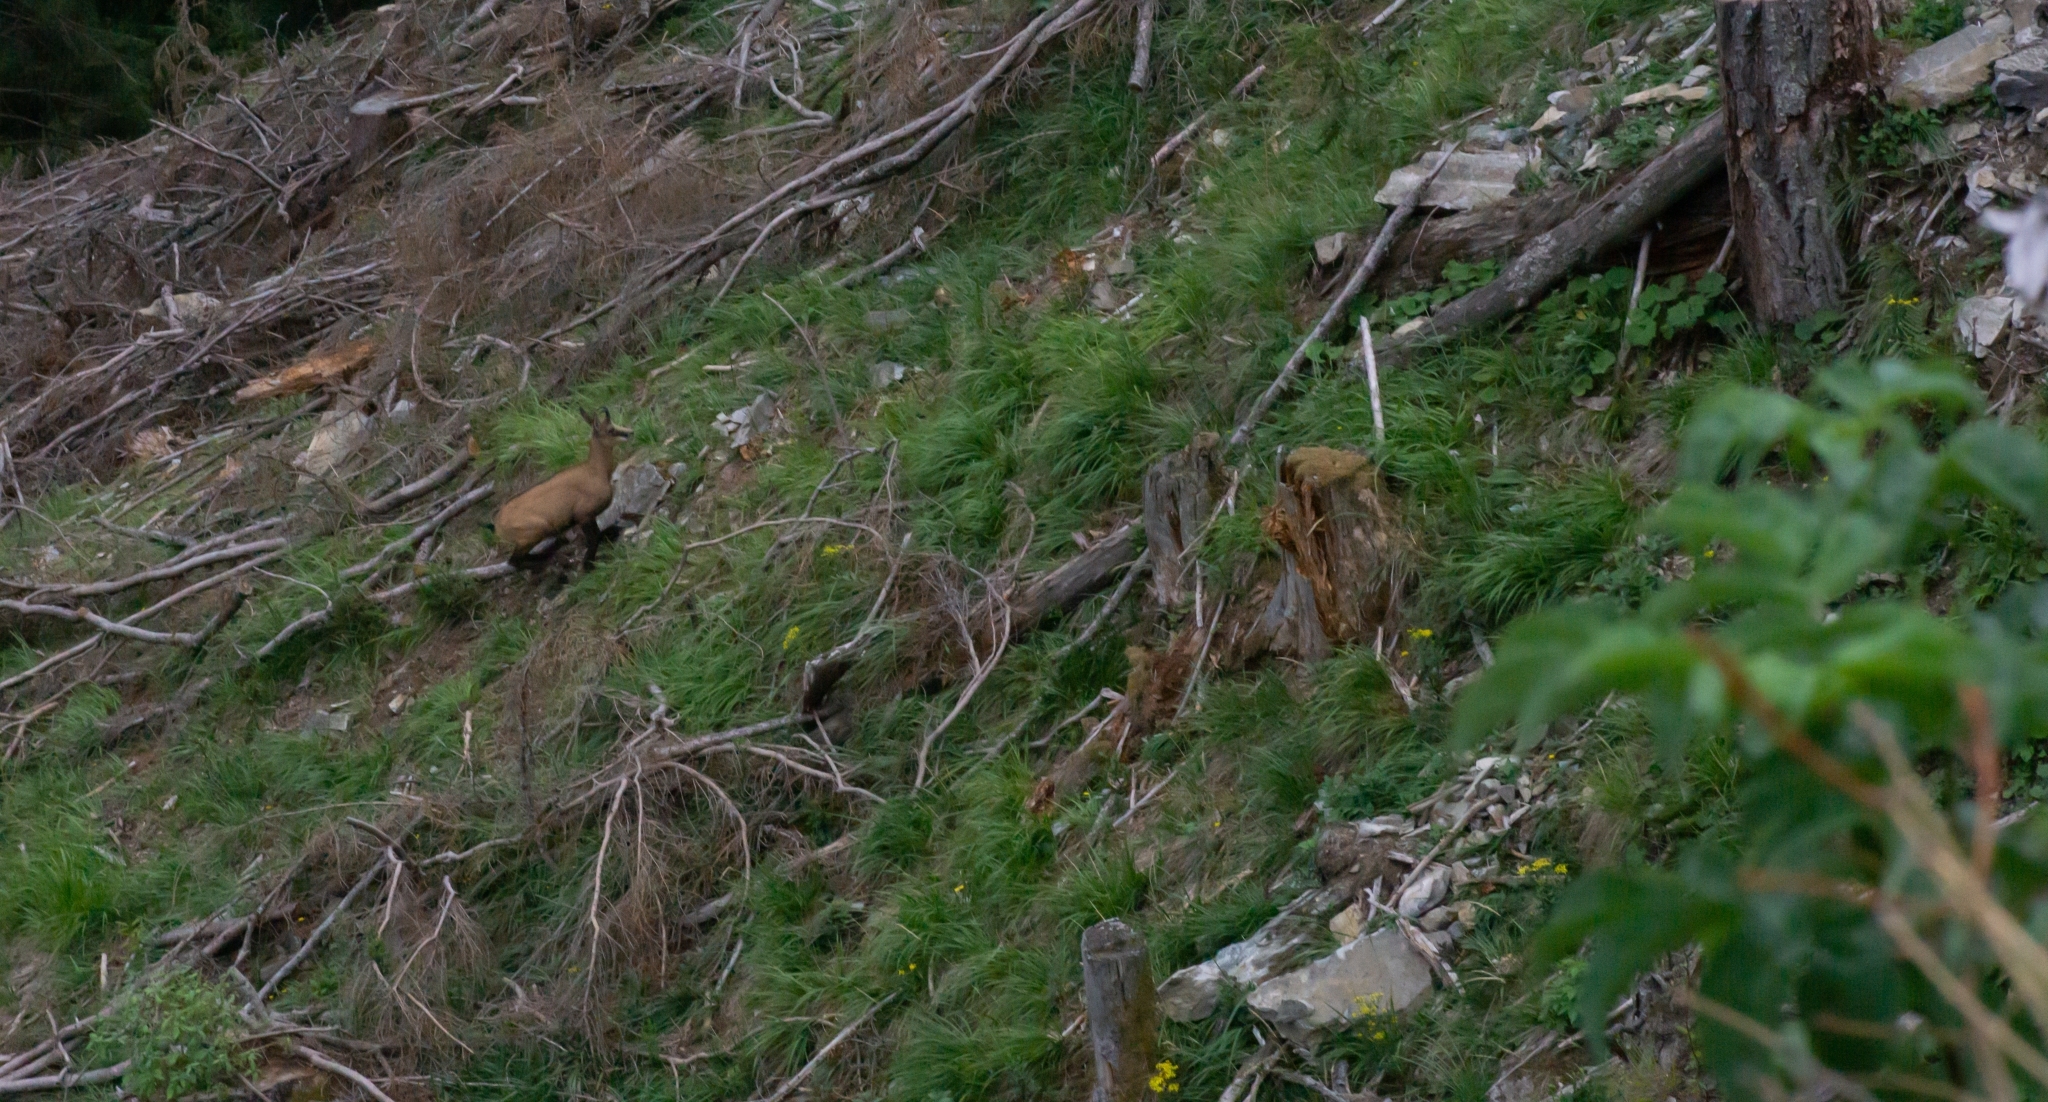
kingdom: Animalia
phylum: Chordata
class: Mammalia
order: Artiodactyla
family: Bovidae
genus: Rupicapra
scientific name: Rupicapra rupicapra
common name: Chamois
